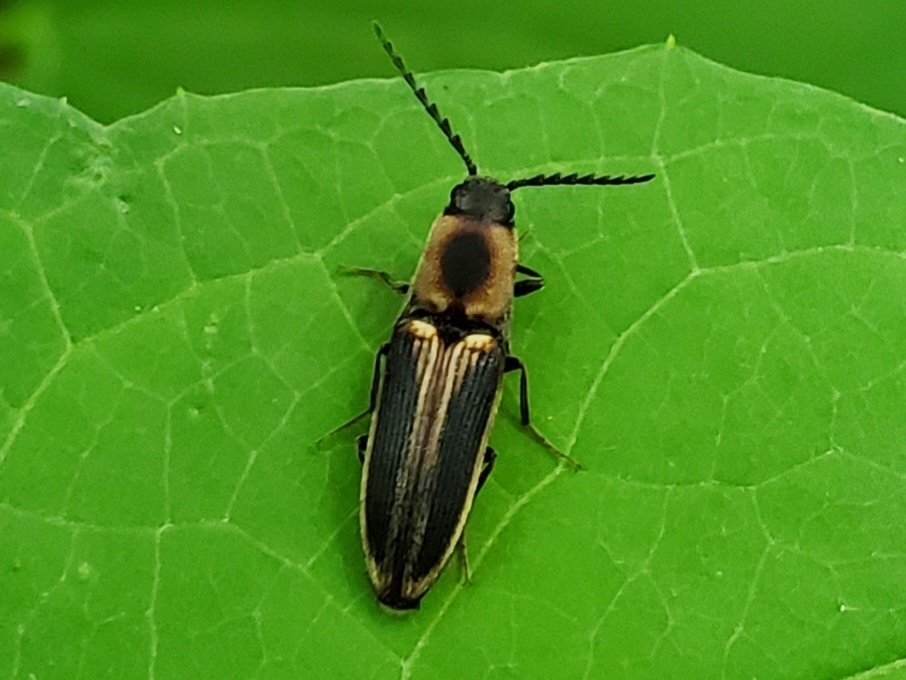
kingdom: Animalia
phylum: Arthropoda
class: Insecta
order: Coleoptera
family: Elateridae
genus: Megapenthes
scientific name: Megapenthes
